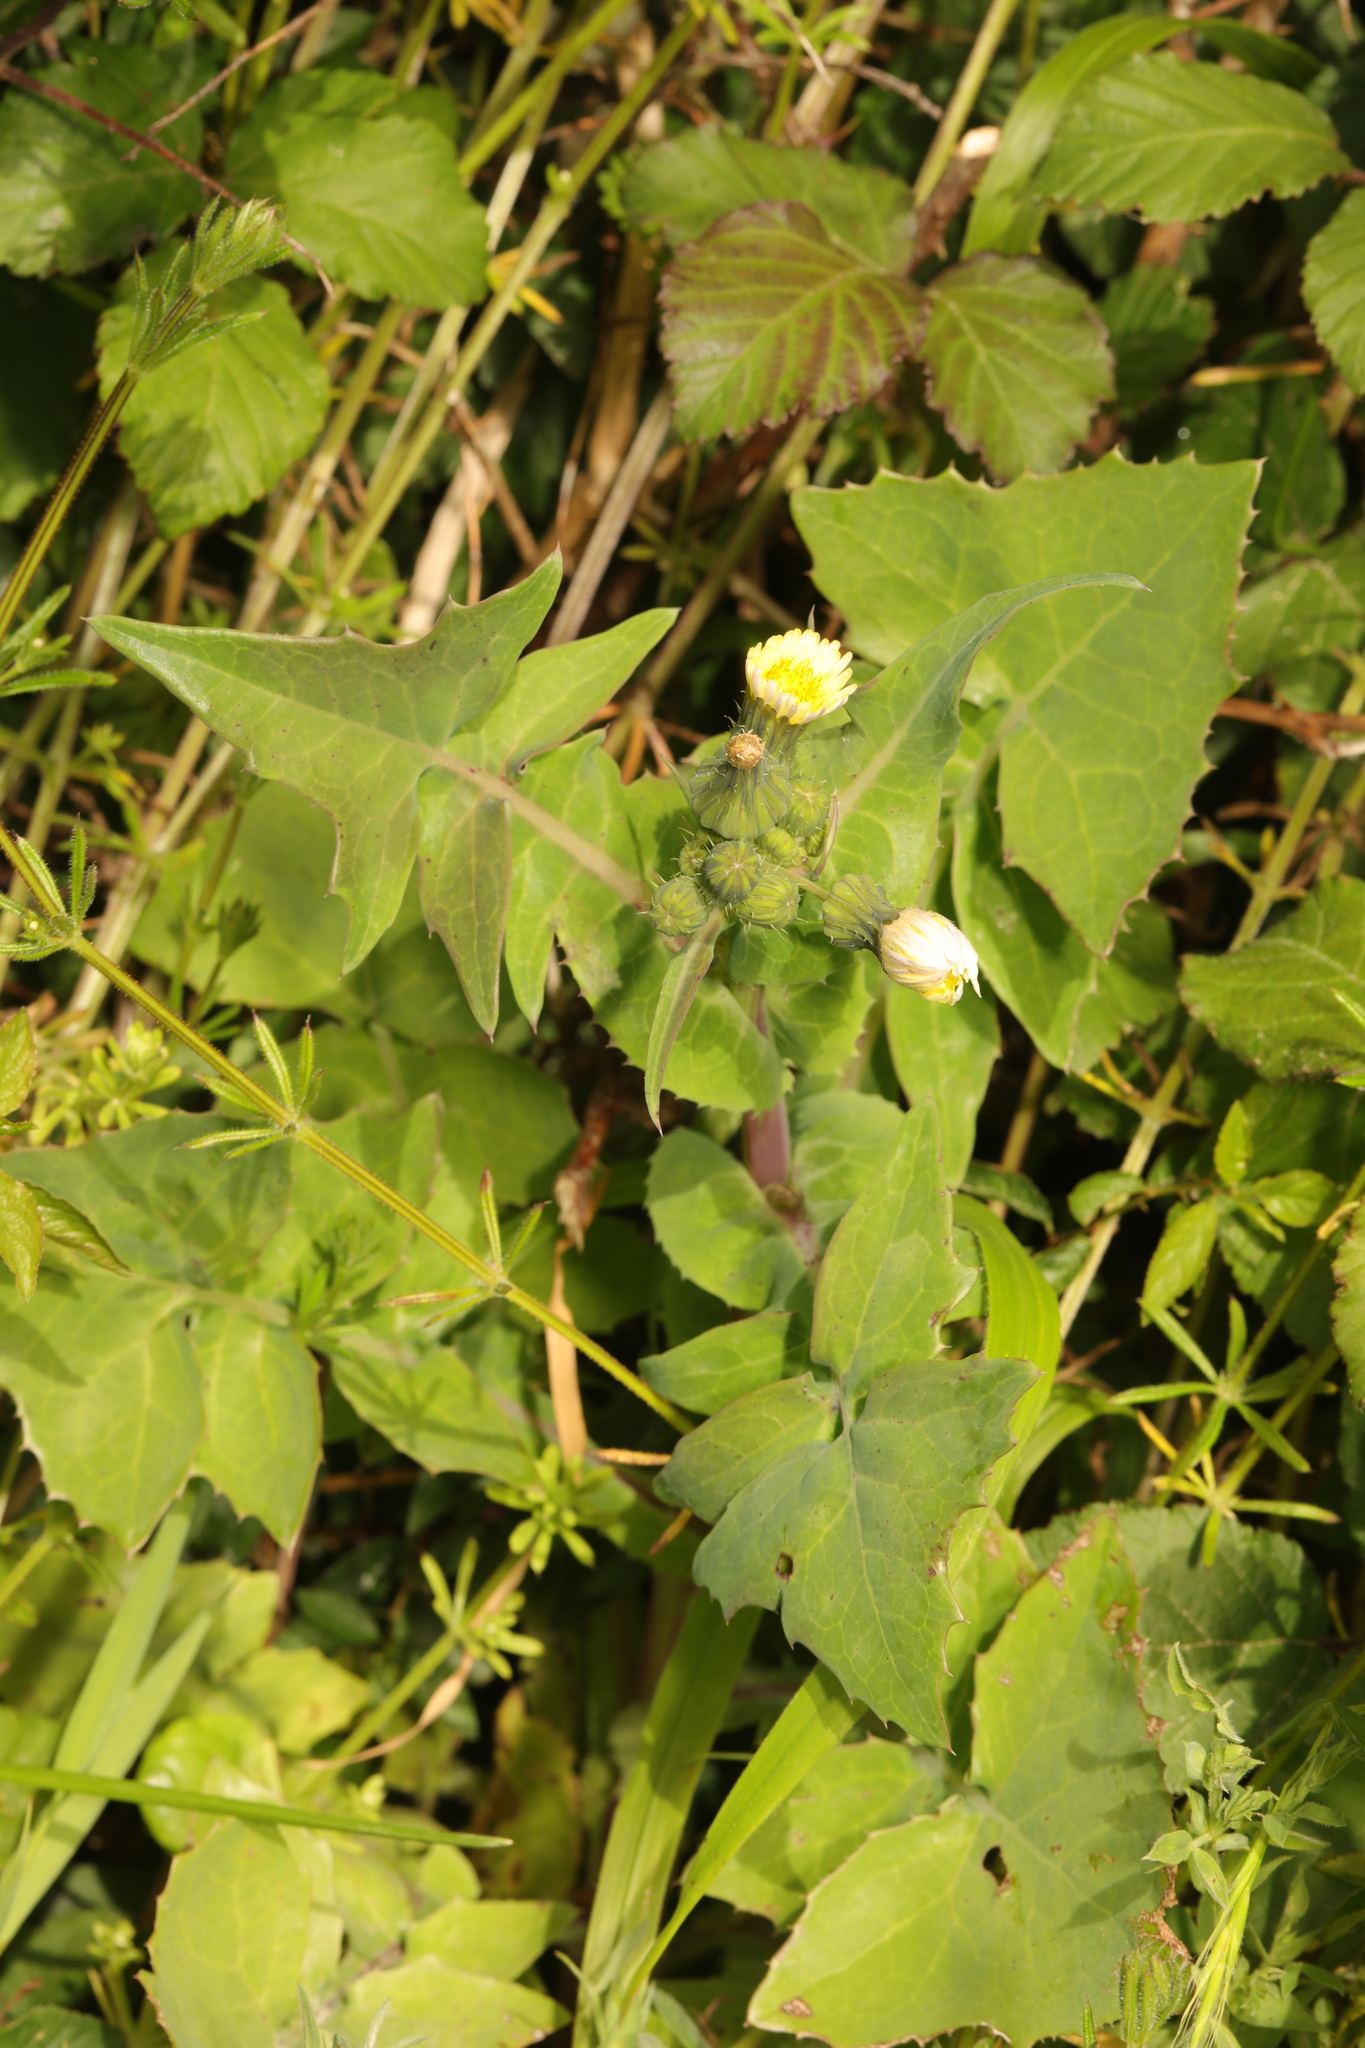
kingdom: Plantae
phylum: Tracheophyta
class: Magnoliopsida
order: Asterales
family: Asteraceae
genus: Sonchus
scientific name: Sonchus oleraceus
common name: Common sowthistle
